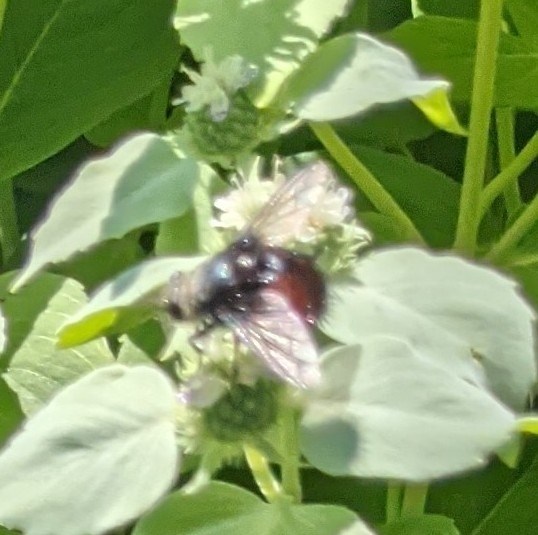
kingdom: Animalia
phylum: Arthropoda
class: Insecta
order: Diptera
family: Tachinidae
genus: Juriniopsis
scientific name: Juriniopsis adusta
